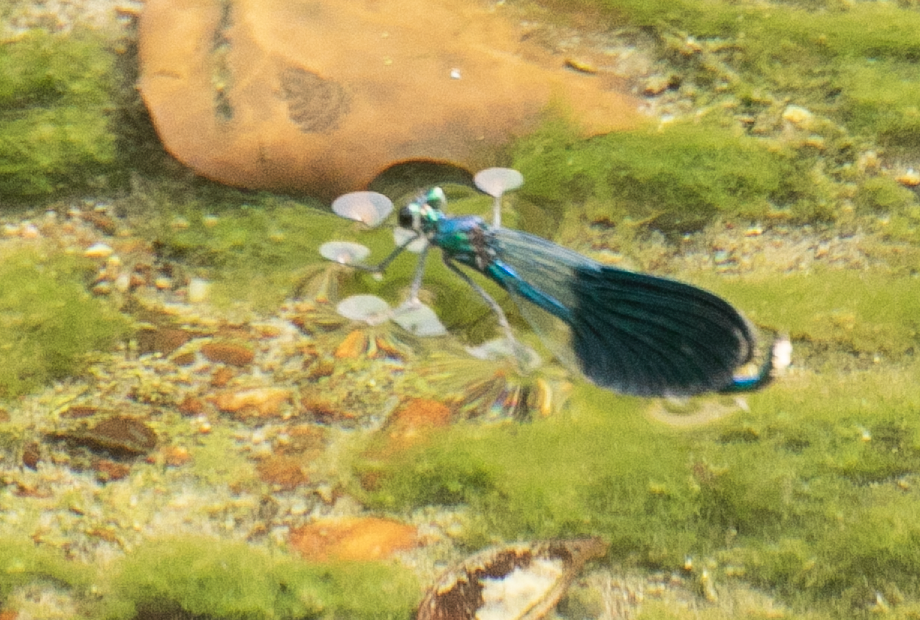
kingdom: Animalia
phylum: Arthropoda
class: Insecta
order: Odonata
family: Calopterygidae
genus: Calopteryx
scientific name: Calopteryx splendens
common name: Banded demoiselle
